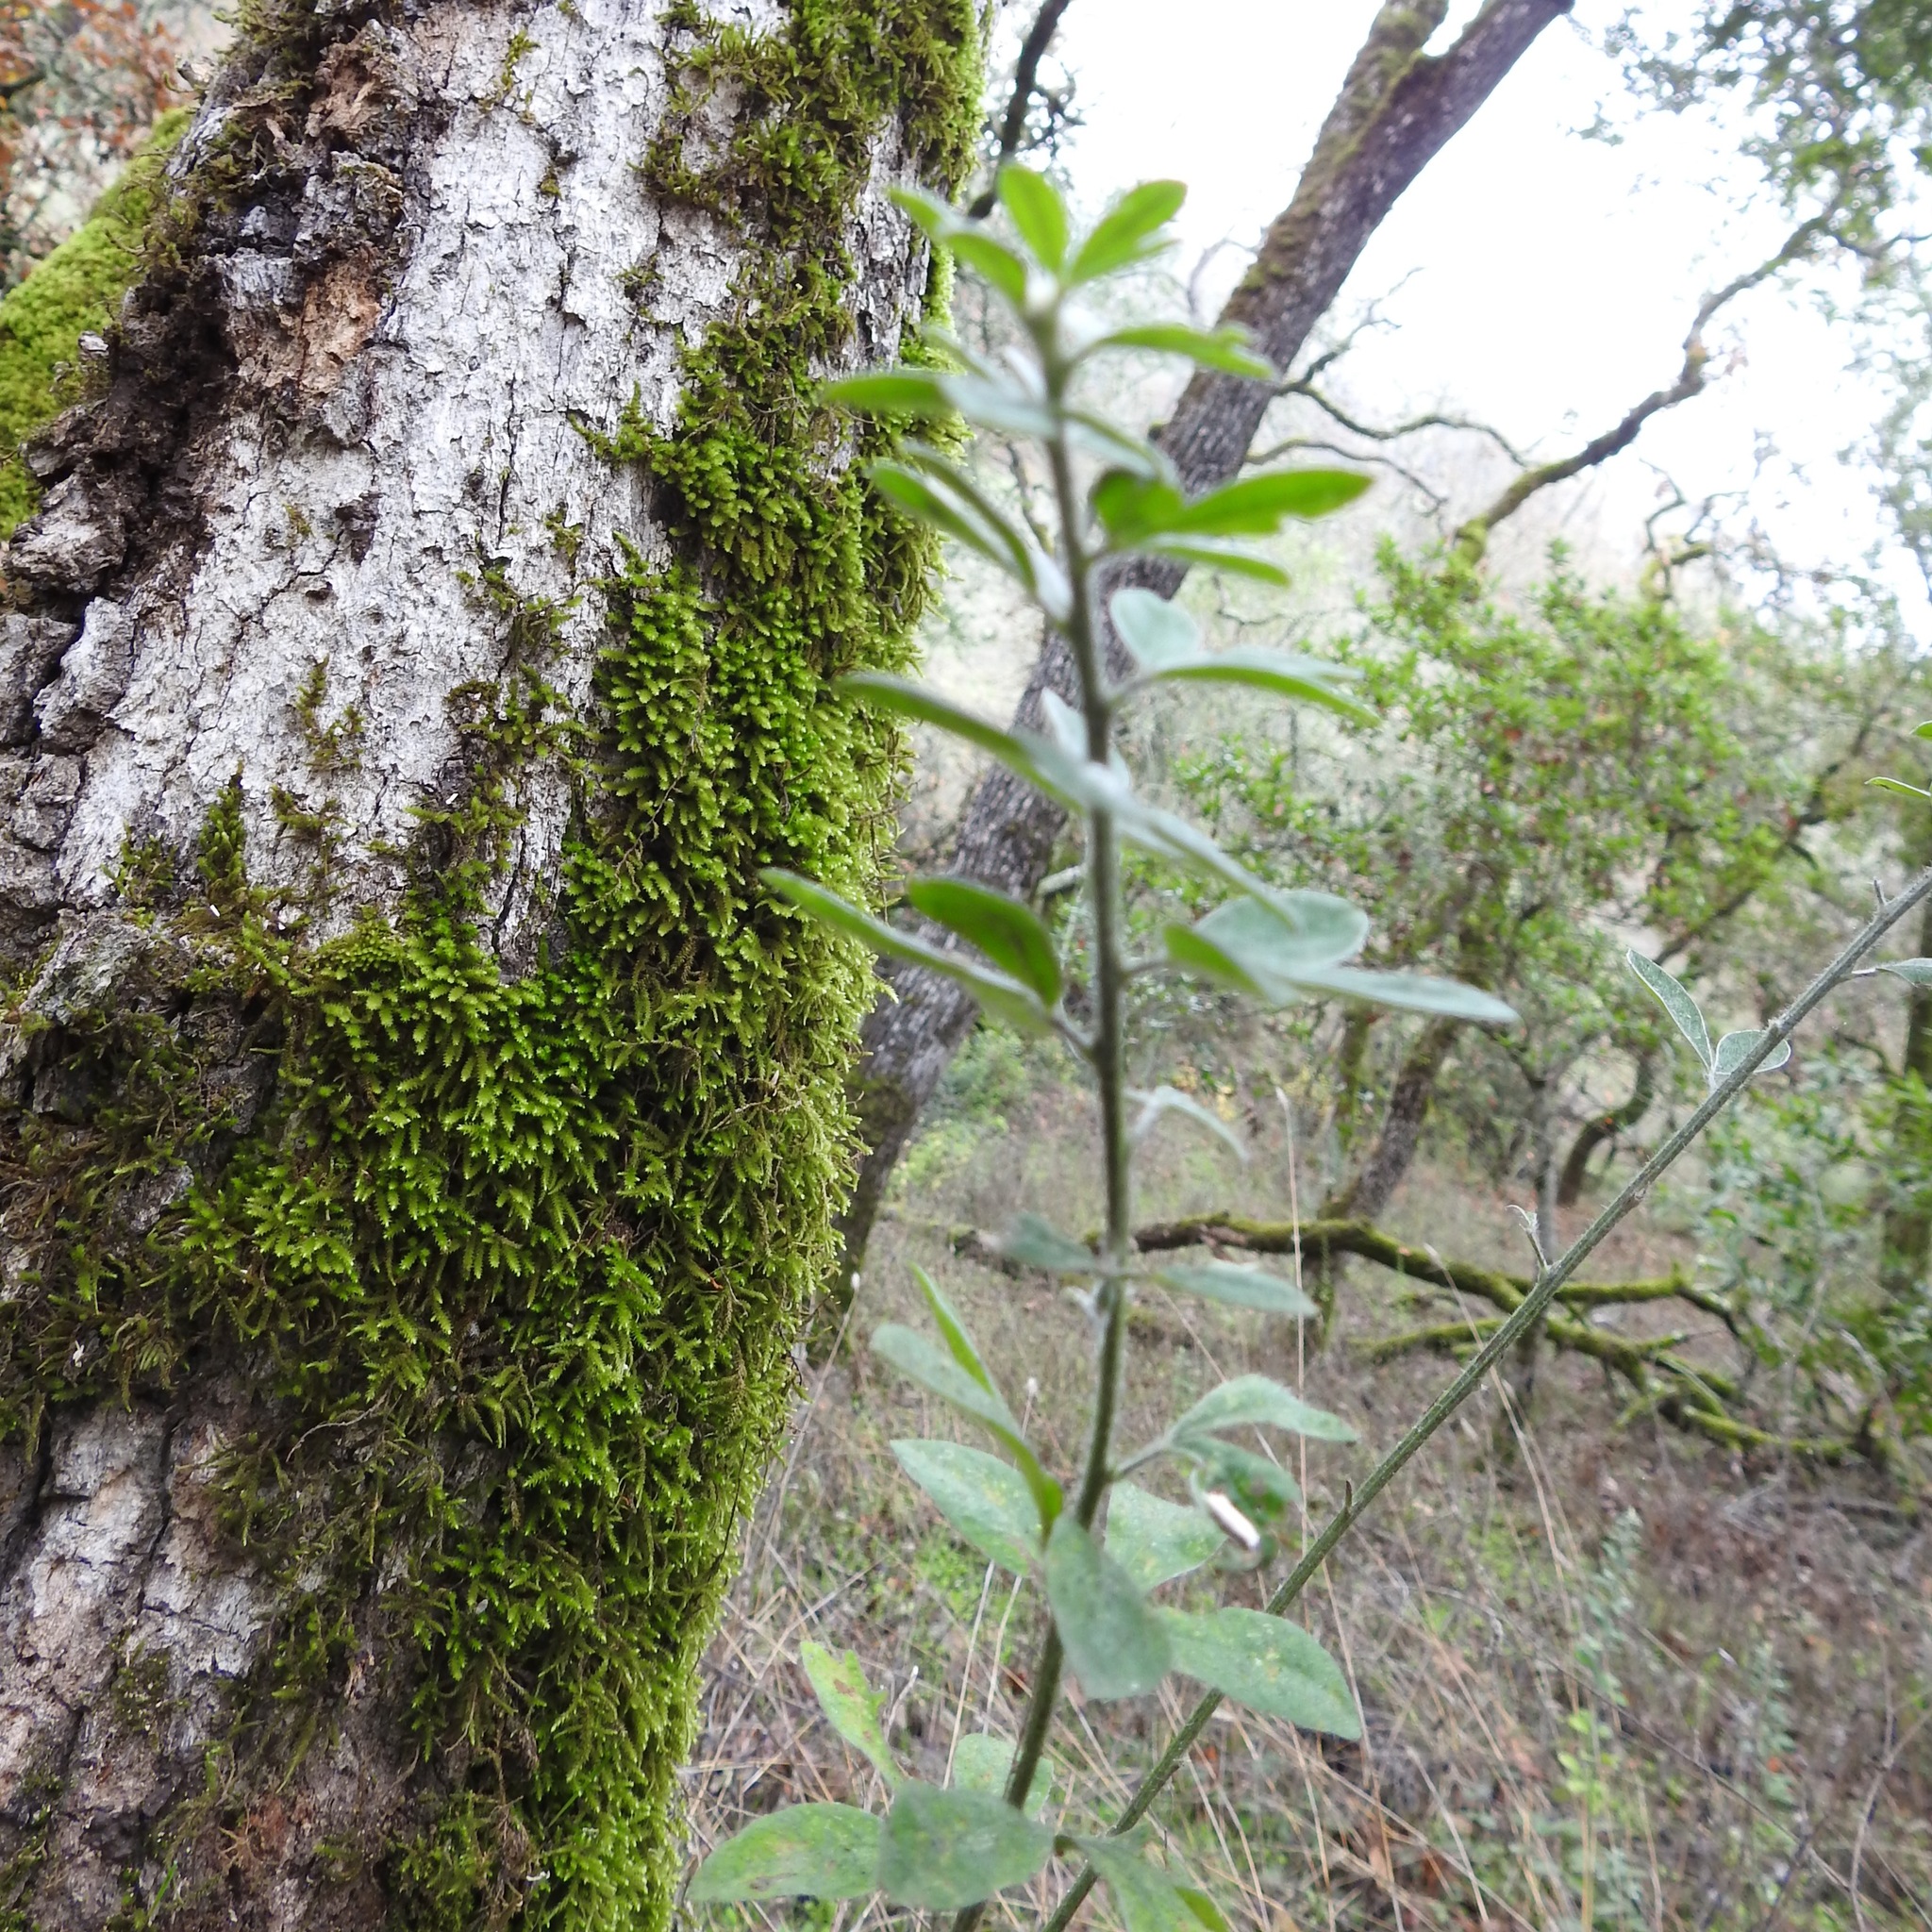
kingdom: Plantae
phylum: Tracheophyta
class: Magnoliopsida
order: Fabales
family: Fabaceae
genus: Genista
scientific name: Genista monspessulana
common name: Montpellier broom
